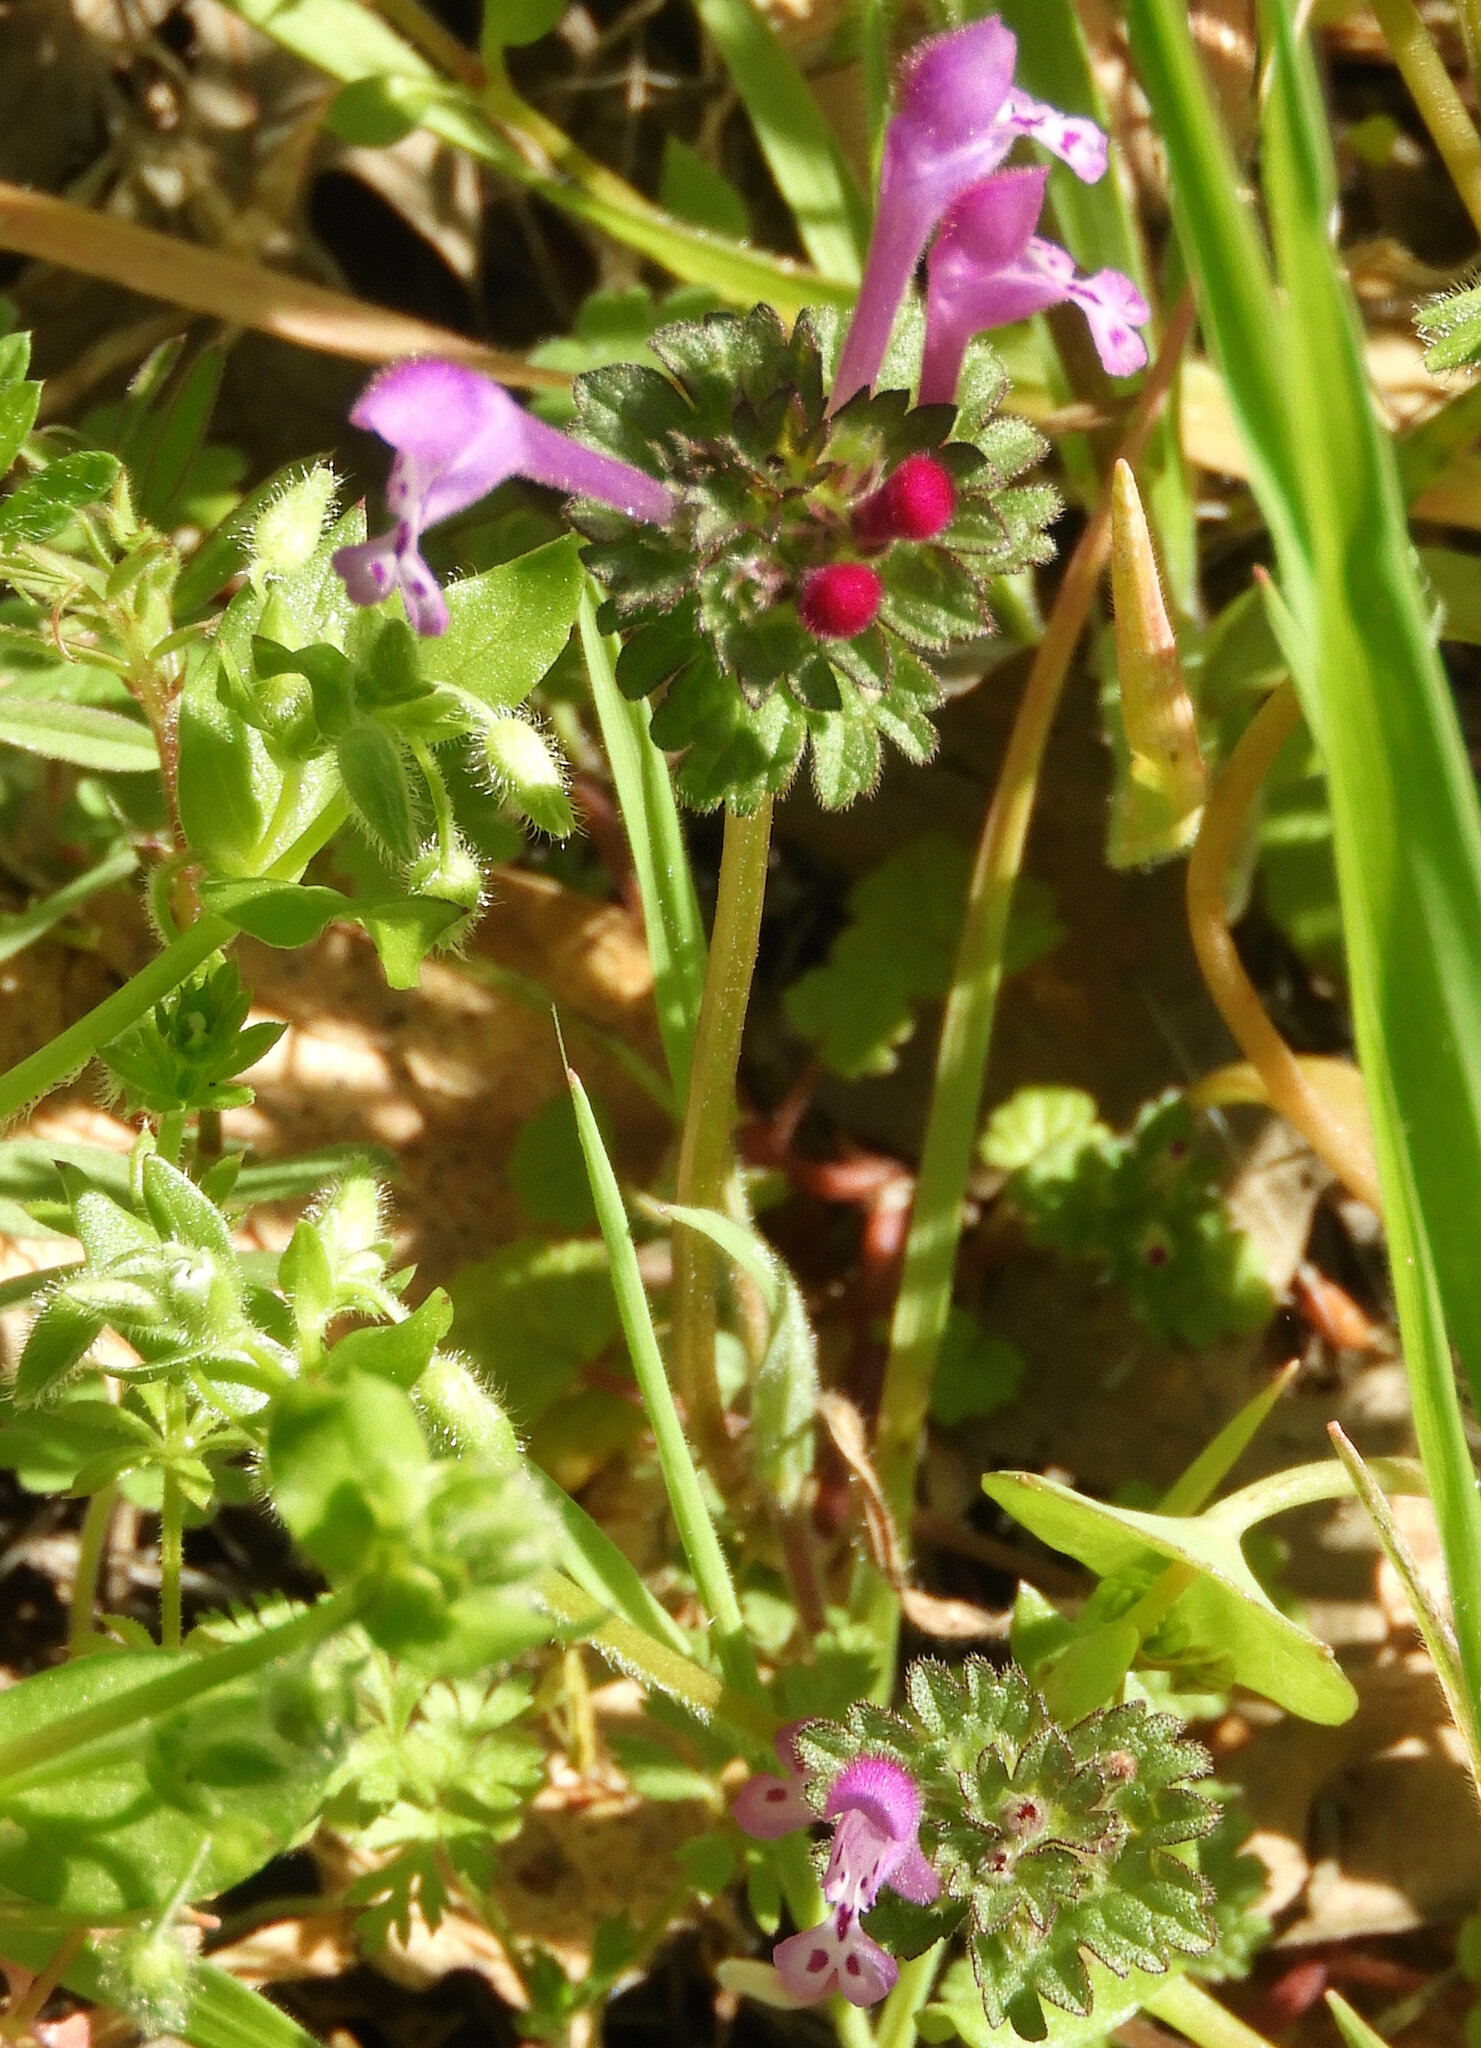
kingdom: Plantae
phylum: Tracheophyta
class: Magnoliopsida
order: Lamiales
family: Lamiaceae
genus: Lamium
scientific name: Lamium amplexicaule
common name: Henbit dead-nettle
